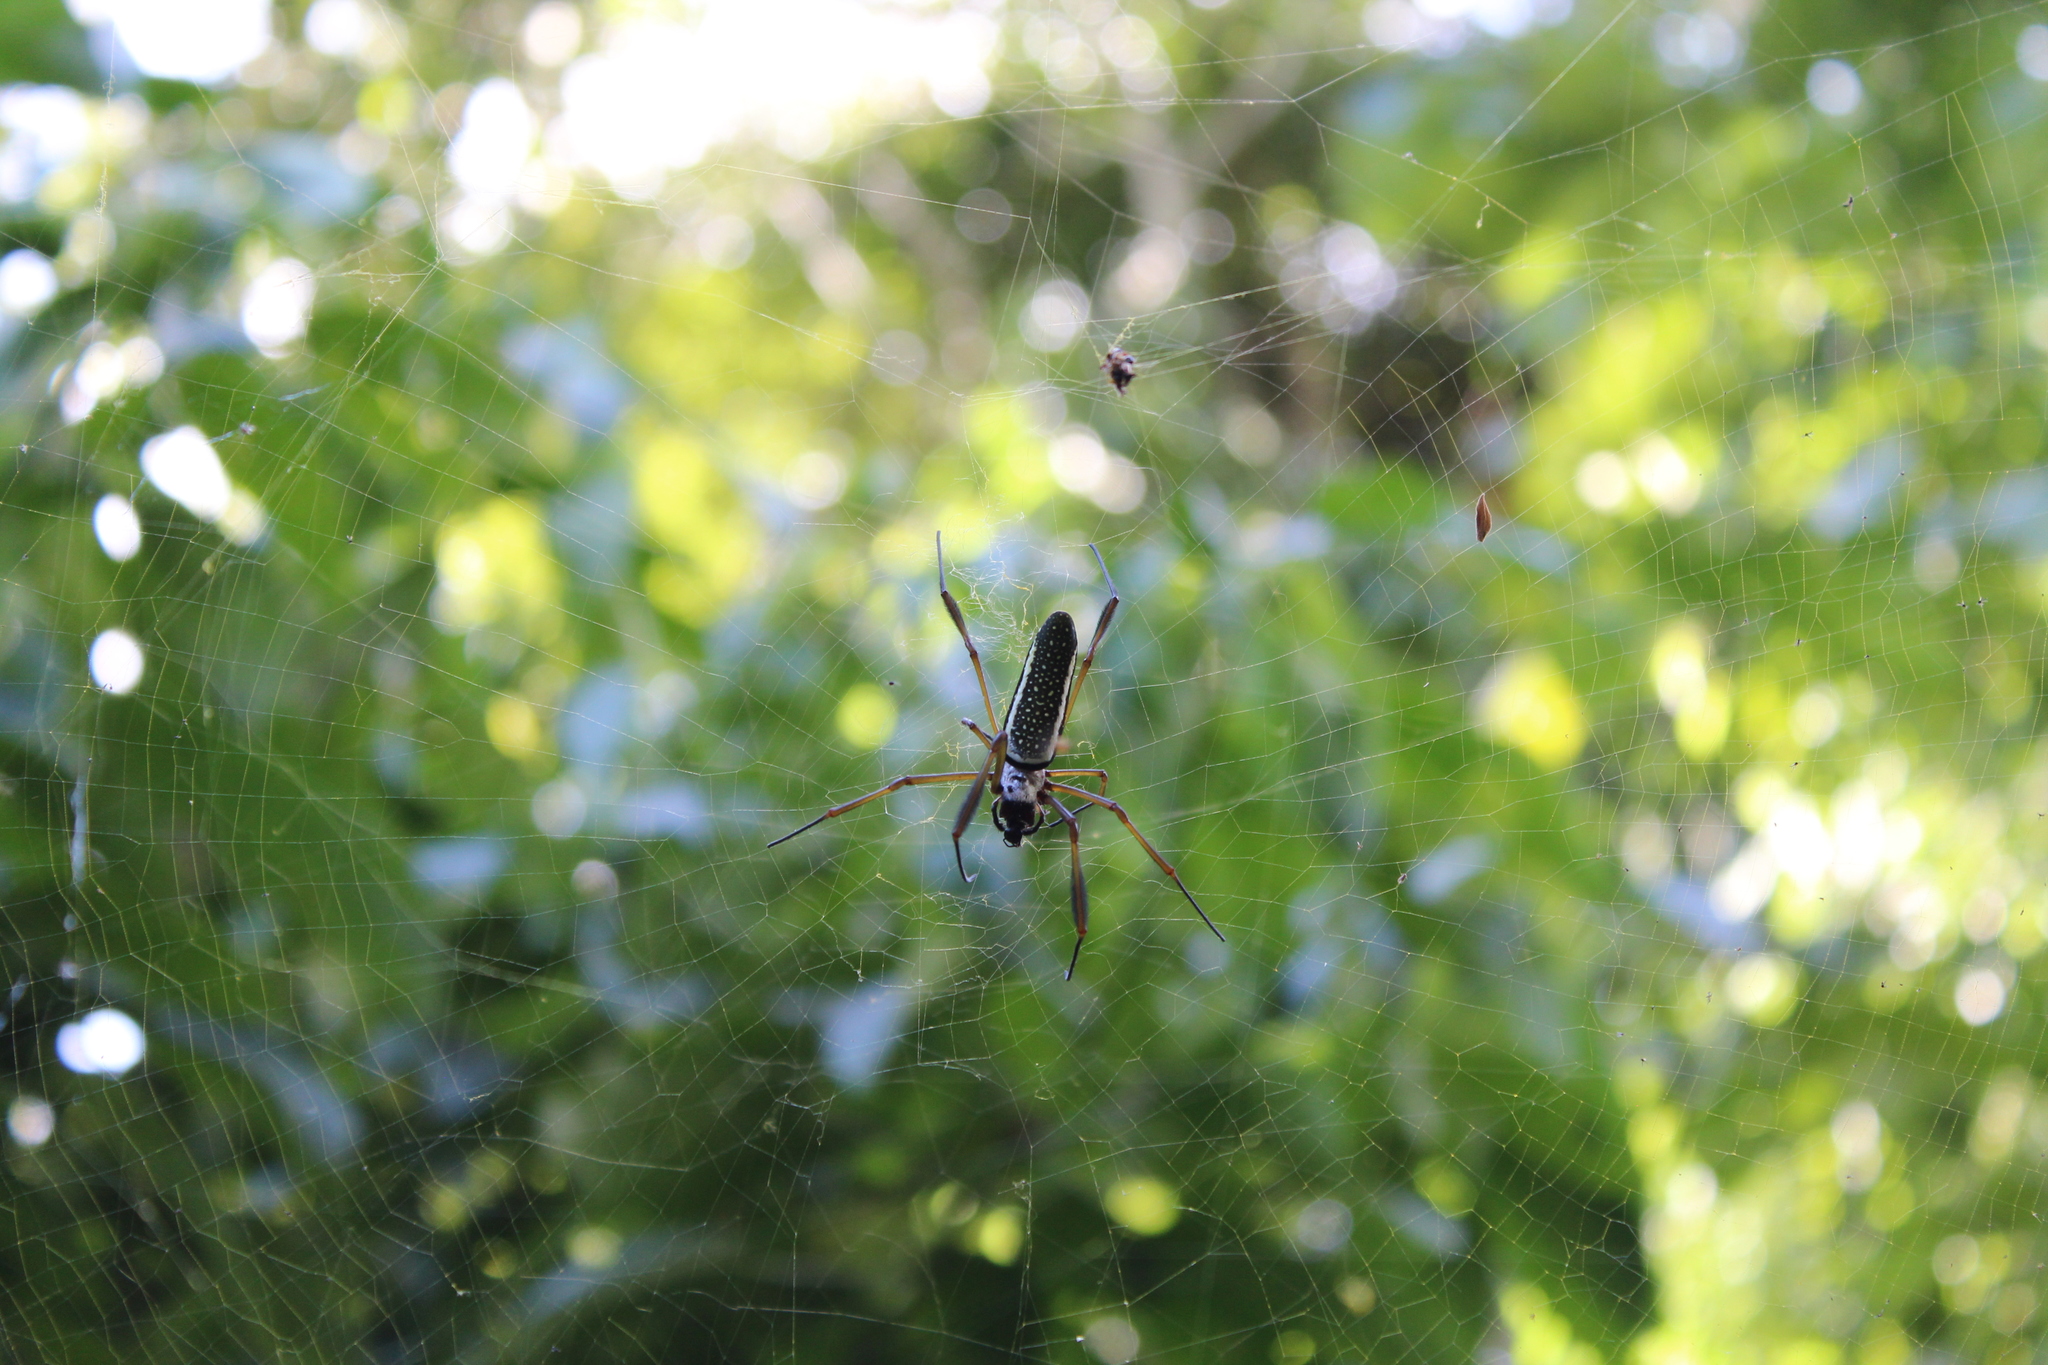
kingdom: Animalia
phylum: Arthropoda
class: Arachnida
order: Araneae
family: Araneidae
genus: Trichonephila
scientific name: Trichonephila clavipes
